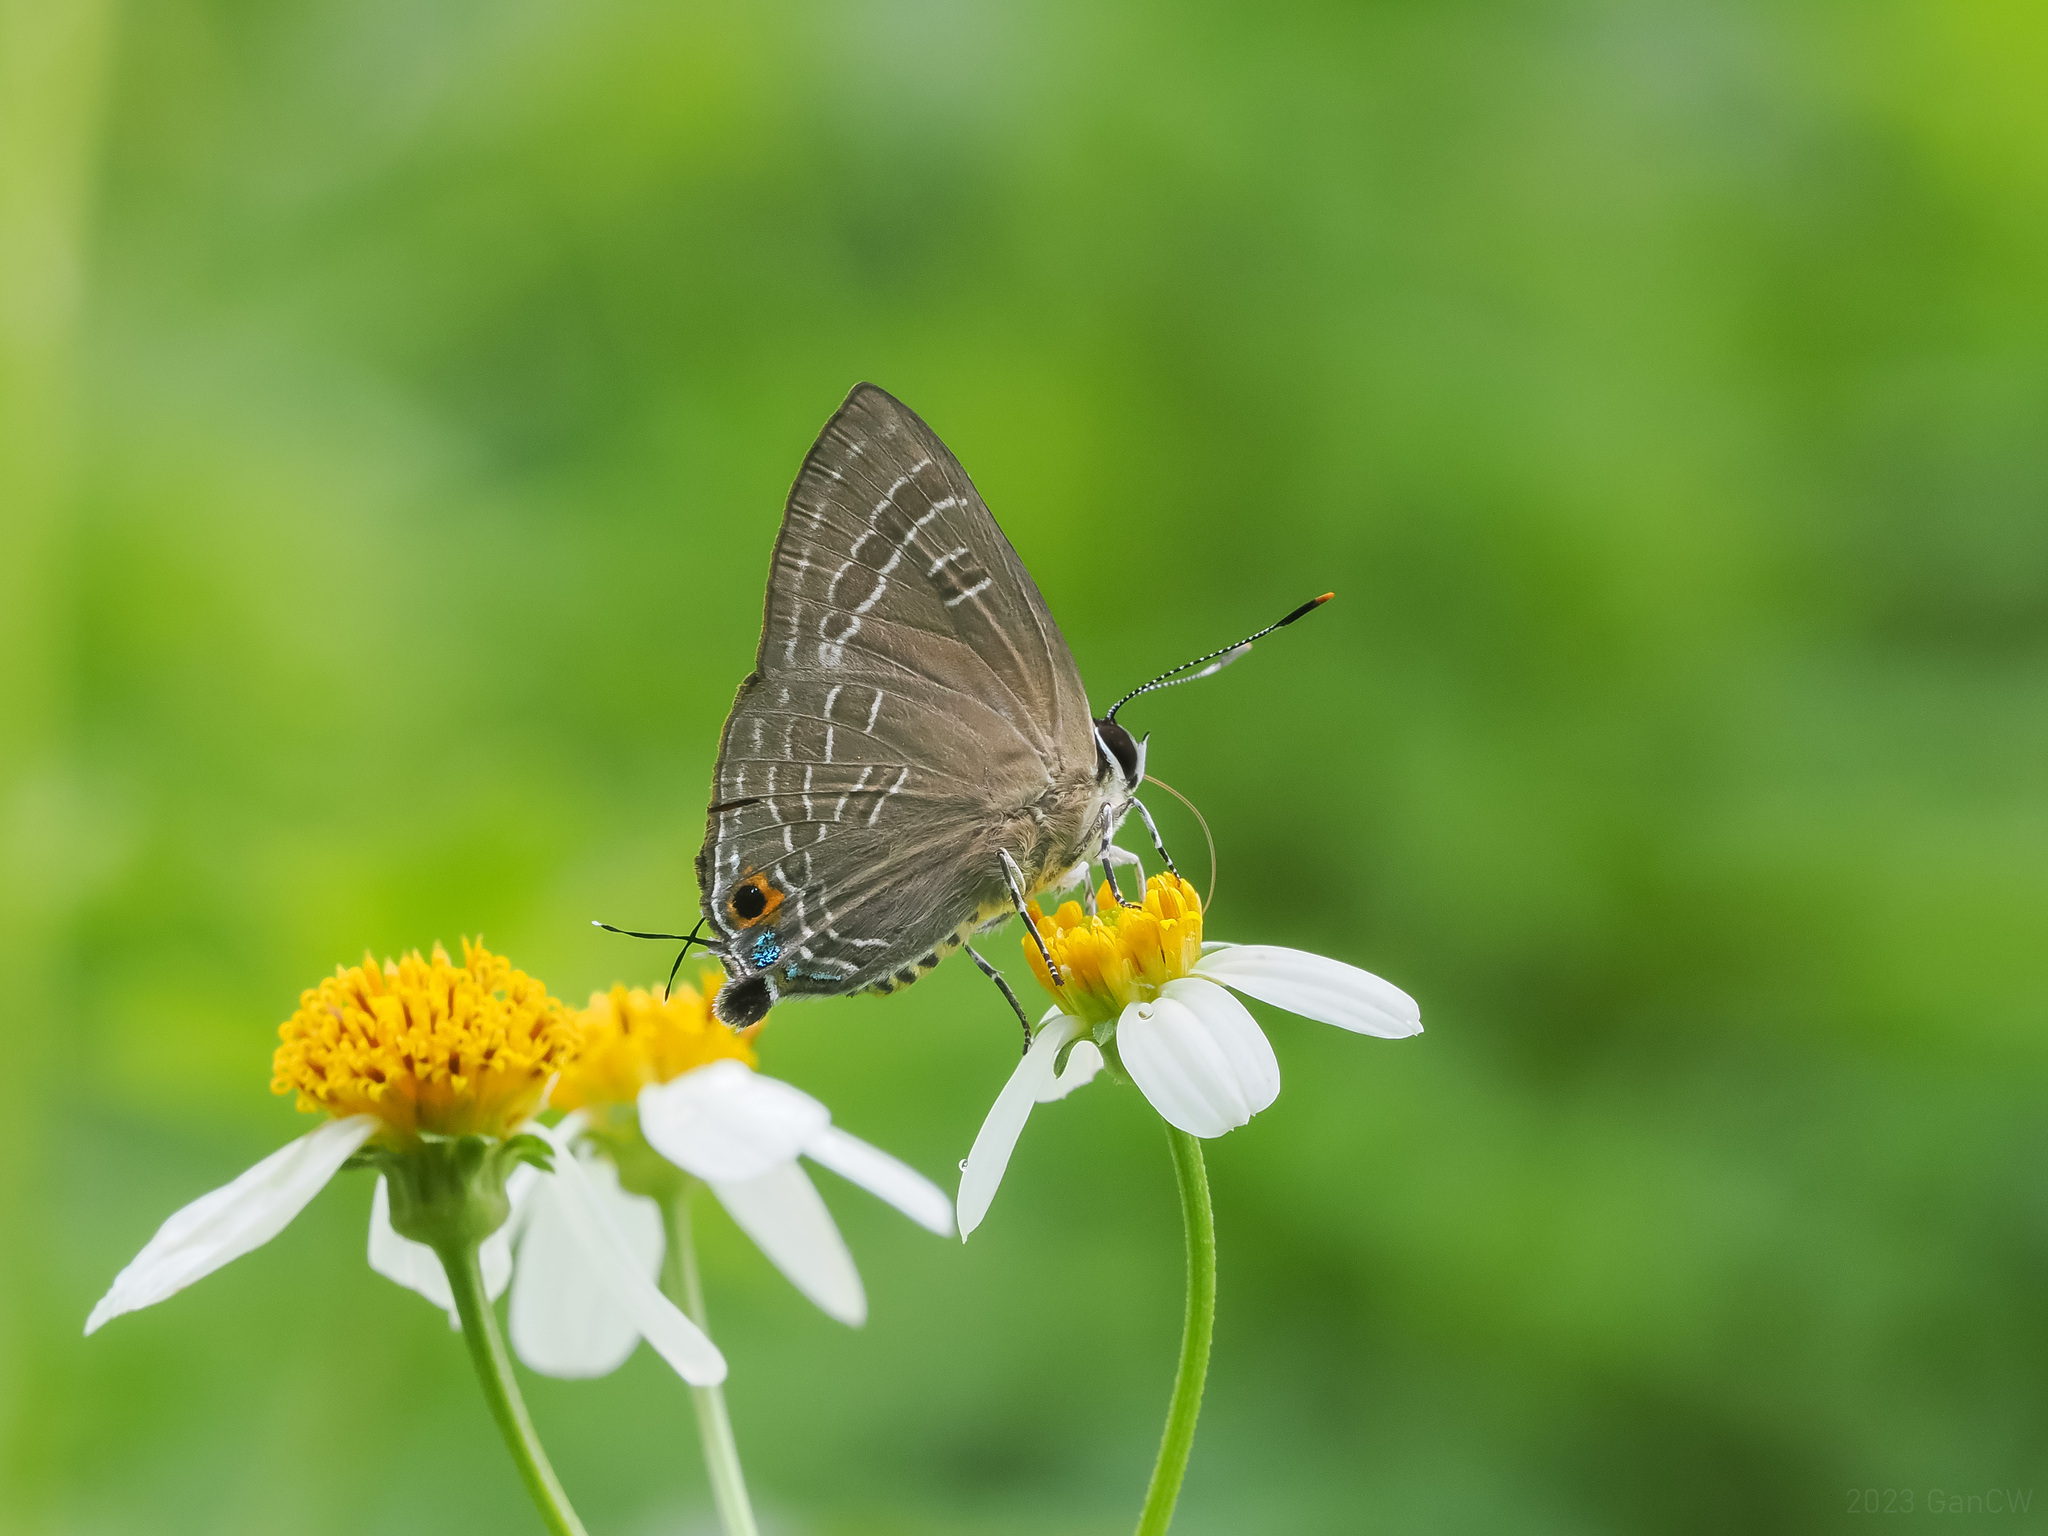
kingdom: Animalia
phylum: Arthropoda
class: Insecta
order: Lepidoptera
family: Lycaenidae
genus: Deudorix
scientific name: Deudorix epijarbas
